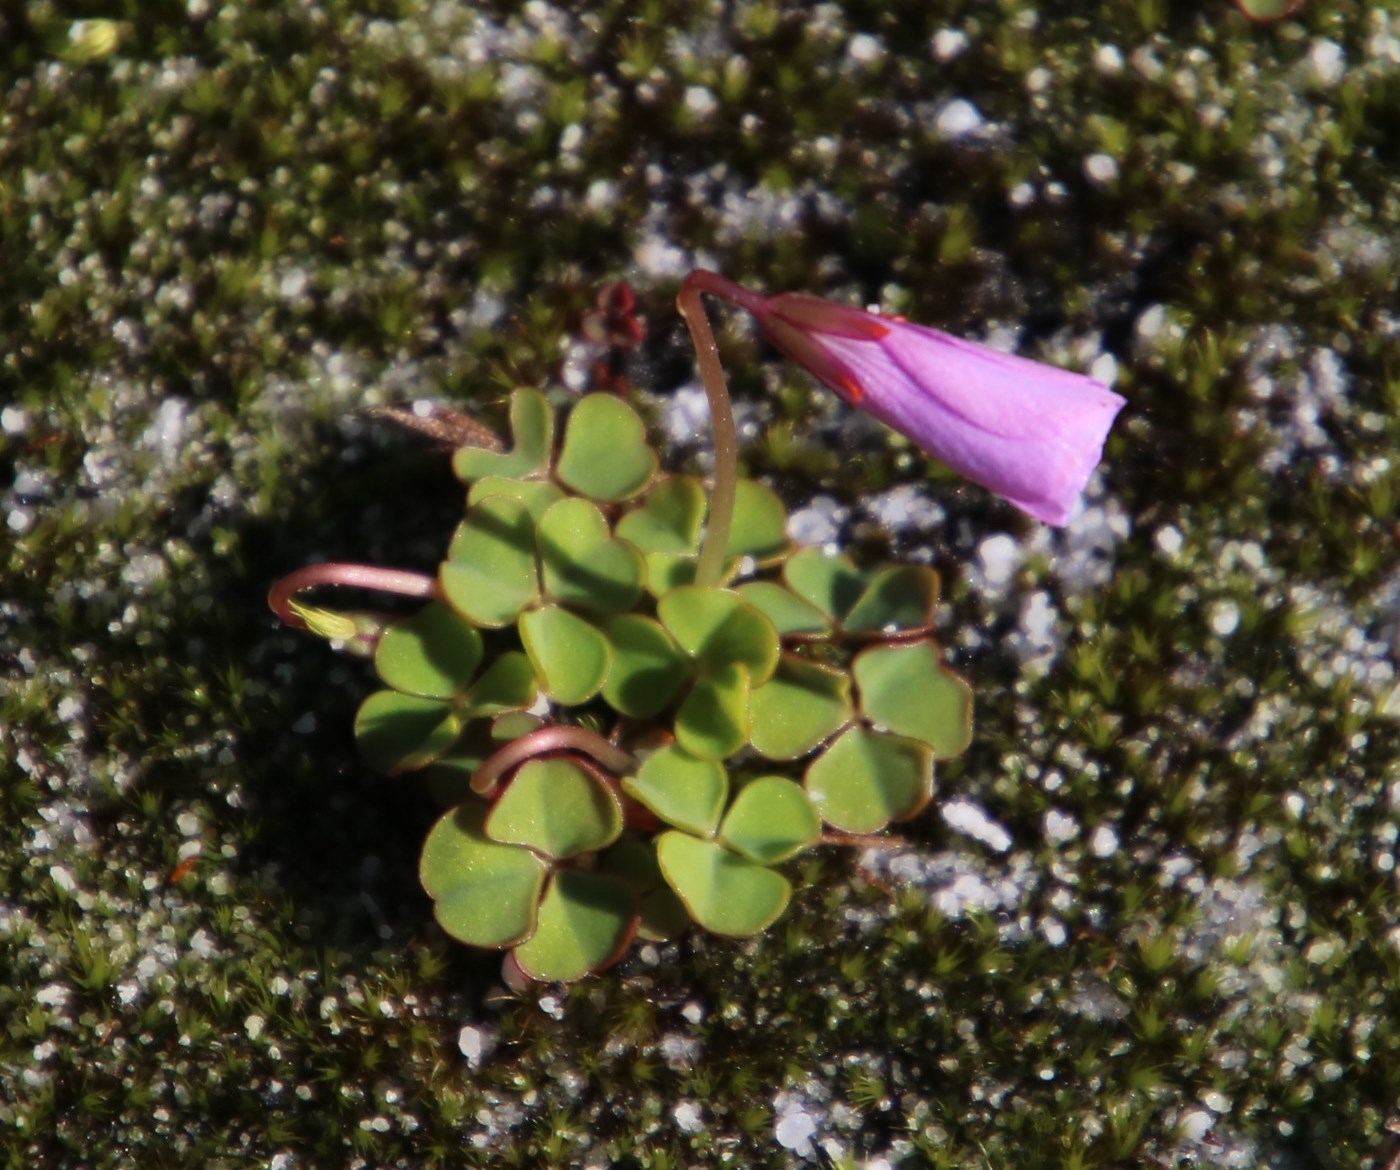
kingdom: Plantae
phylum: Tracheophyta
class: Magnoliopsida
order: Oxalidales
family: Oxalidaceae
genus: Oxalis
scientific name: Oxalis commutata
